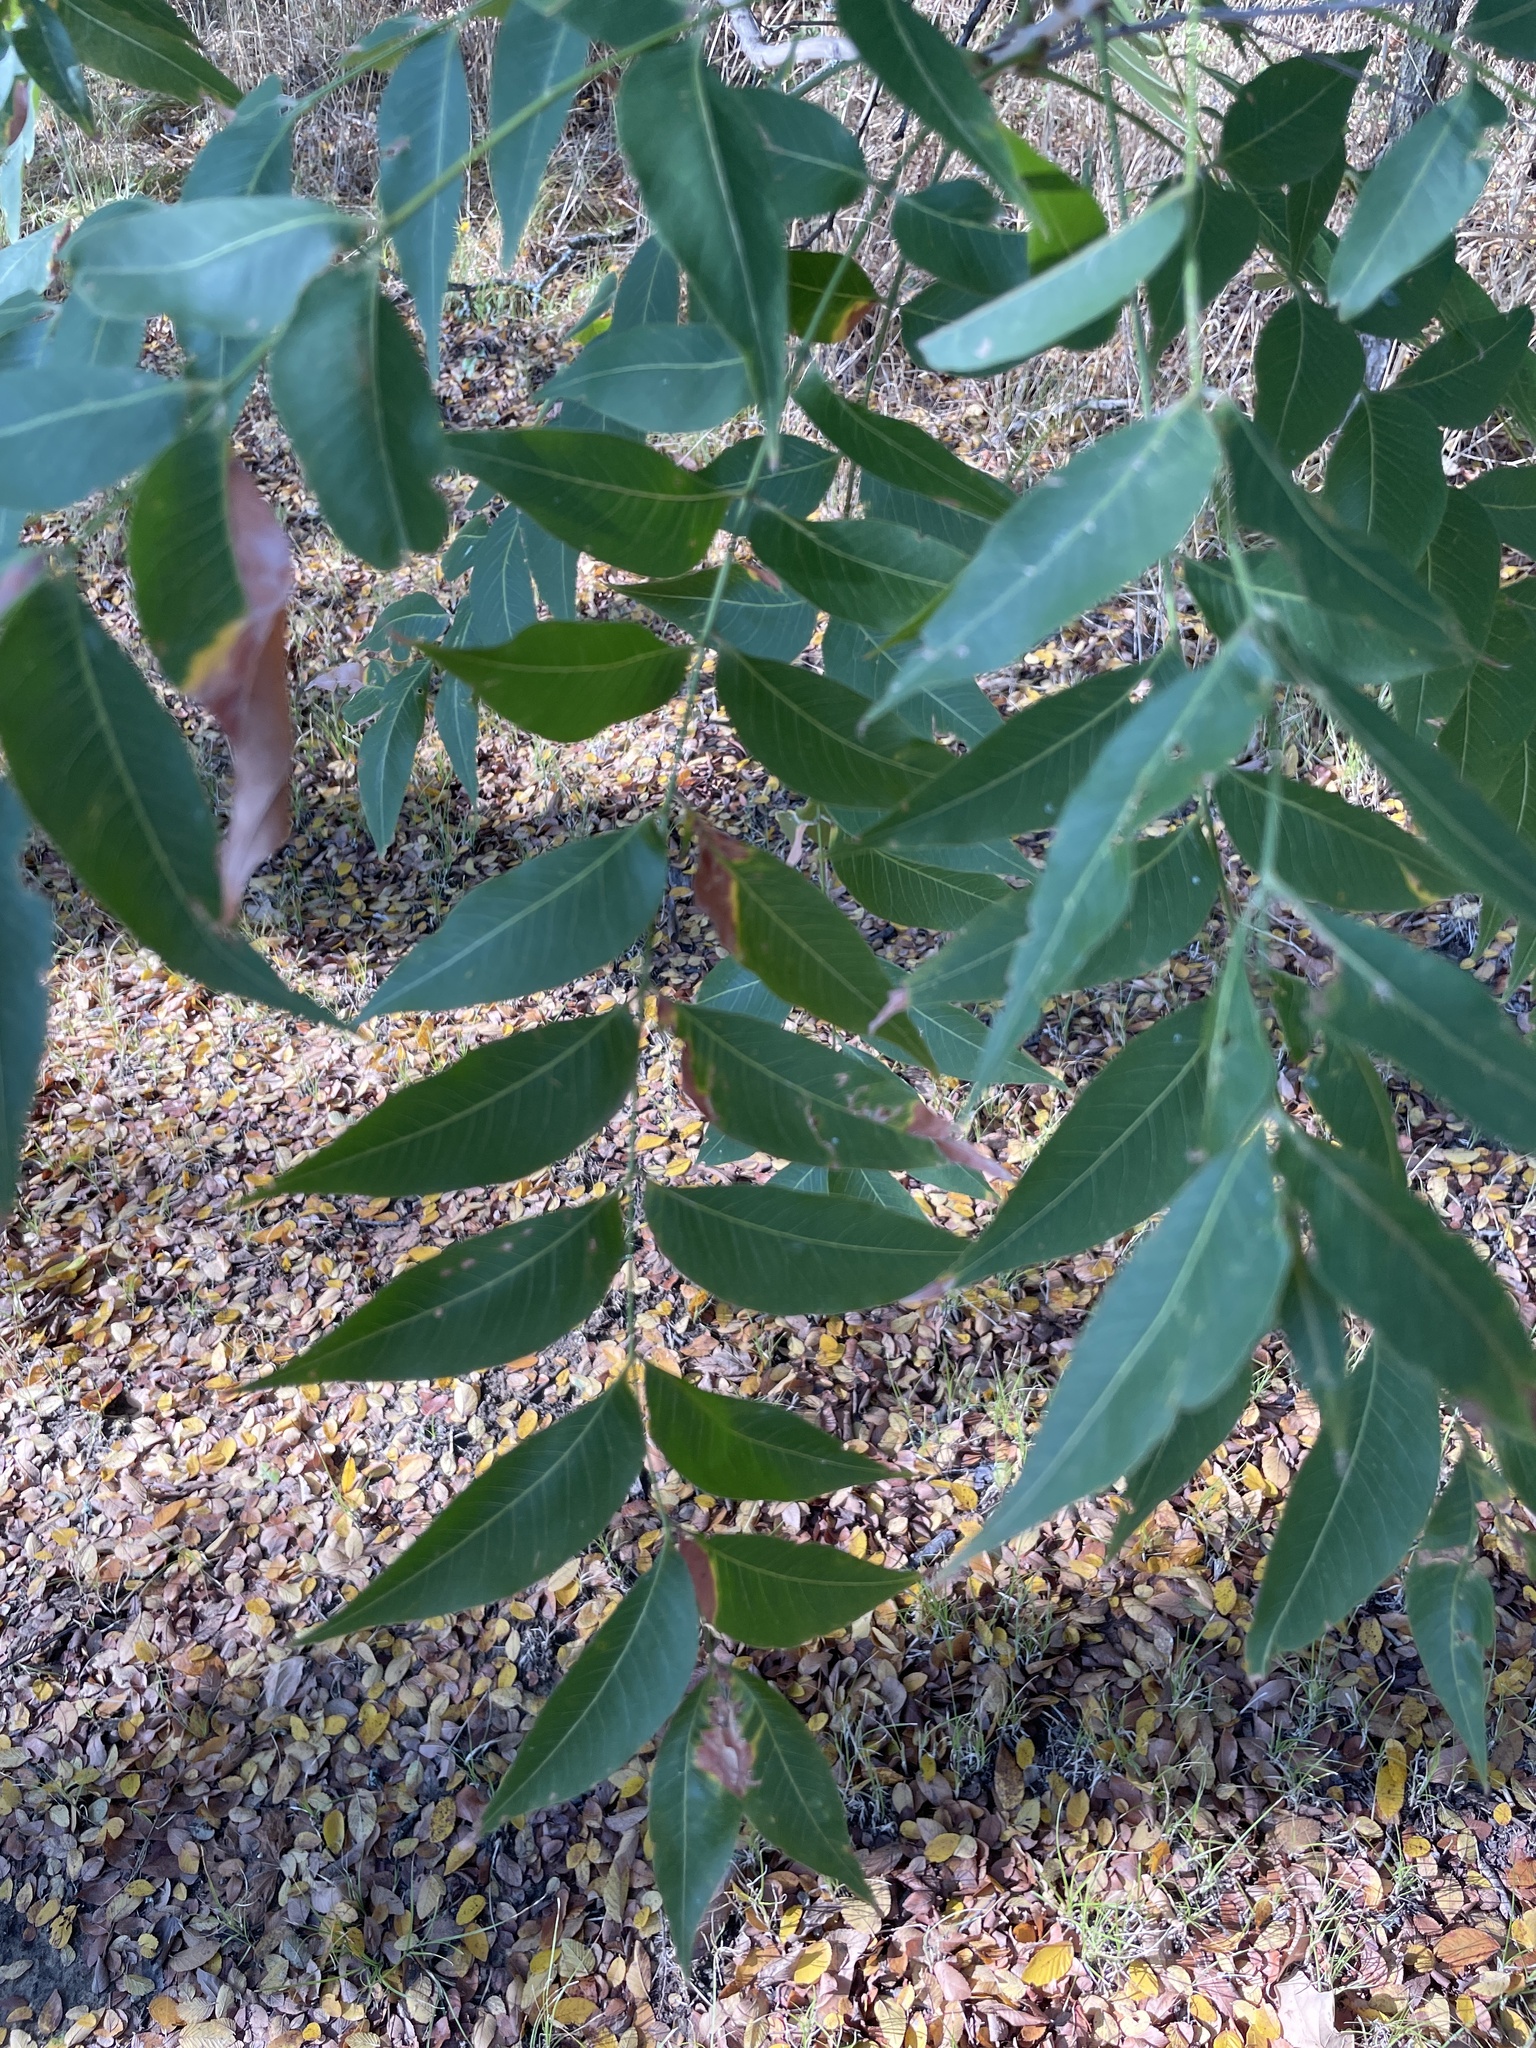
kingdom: Plantae
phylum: Tracheophyta
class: Magnoliopsida
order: Sapindales
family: Sapindaceae
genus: Sapindus
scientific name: Sapindus drummondii
